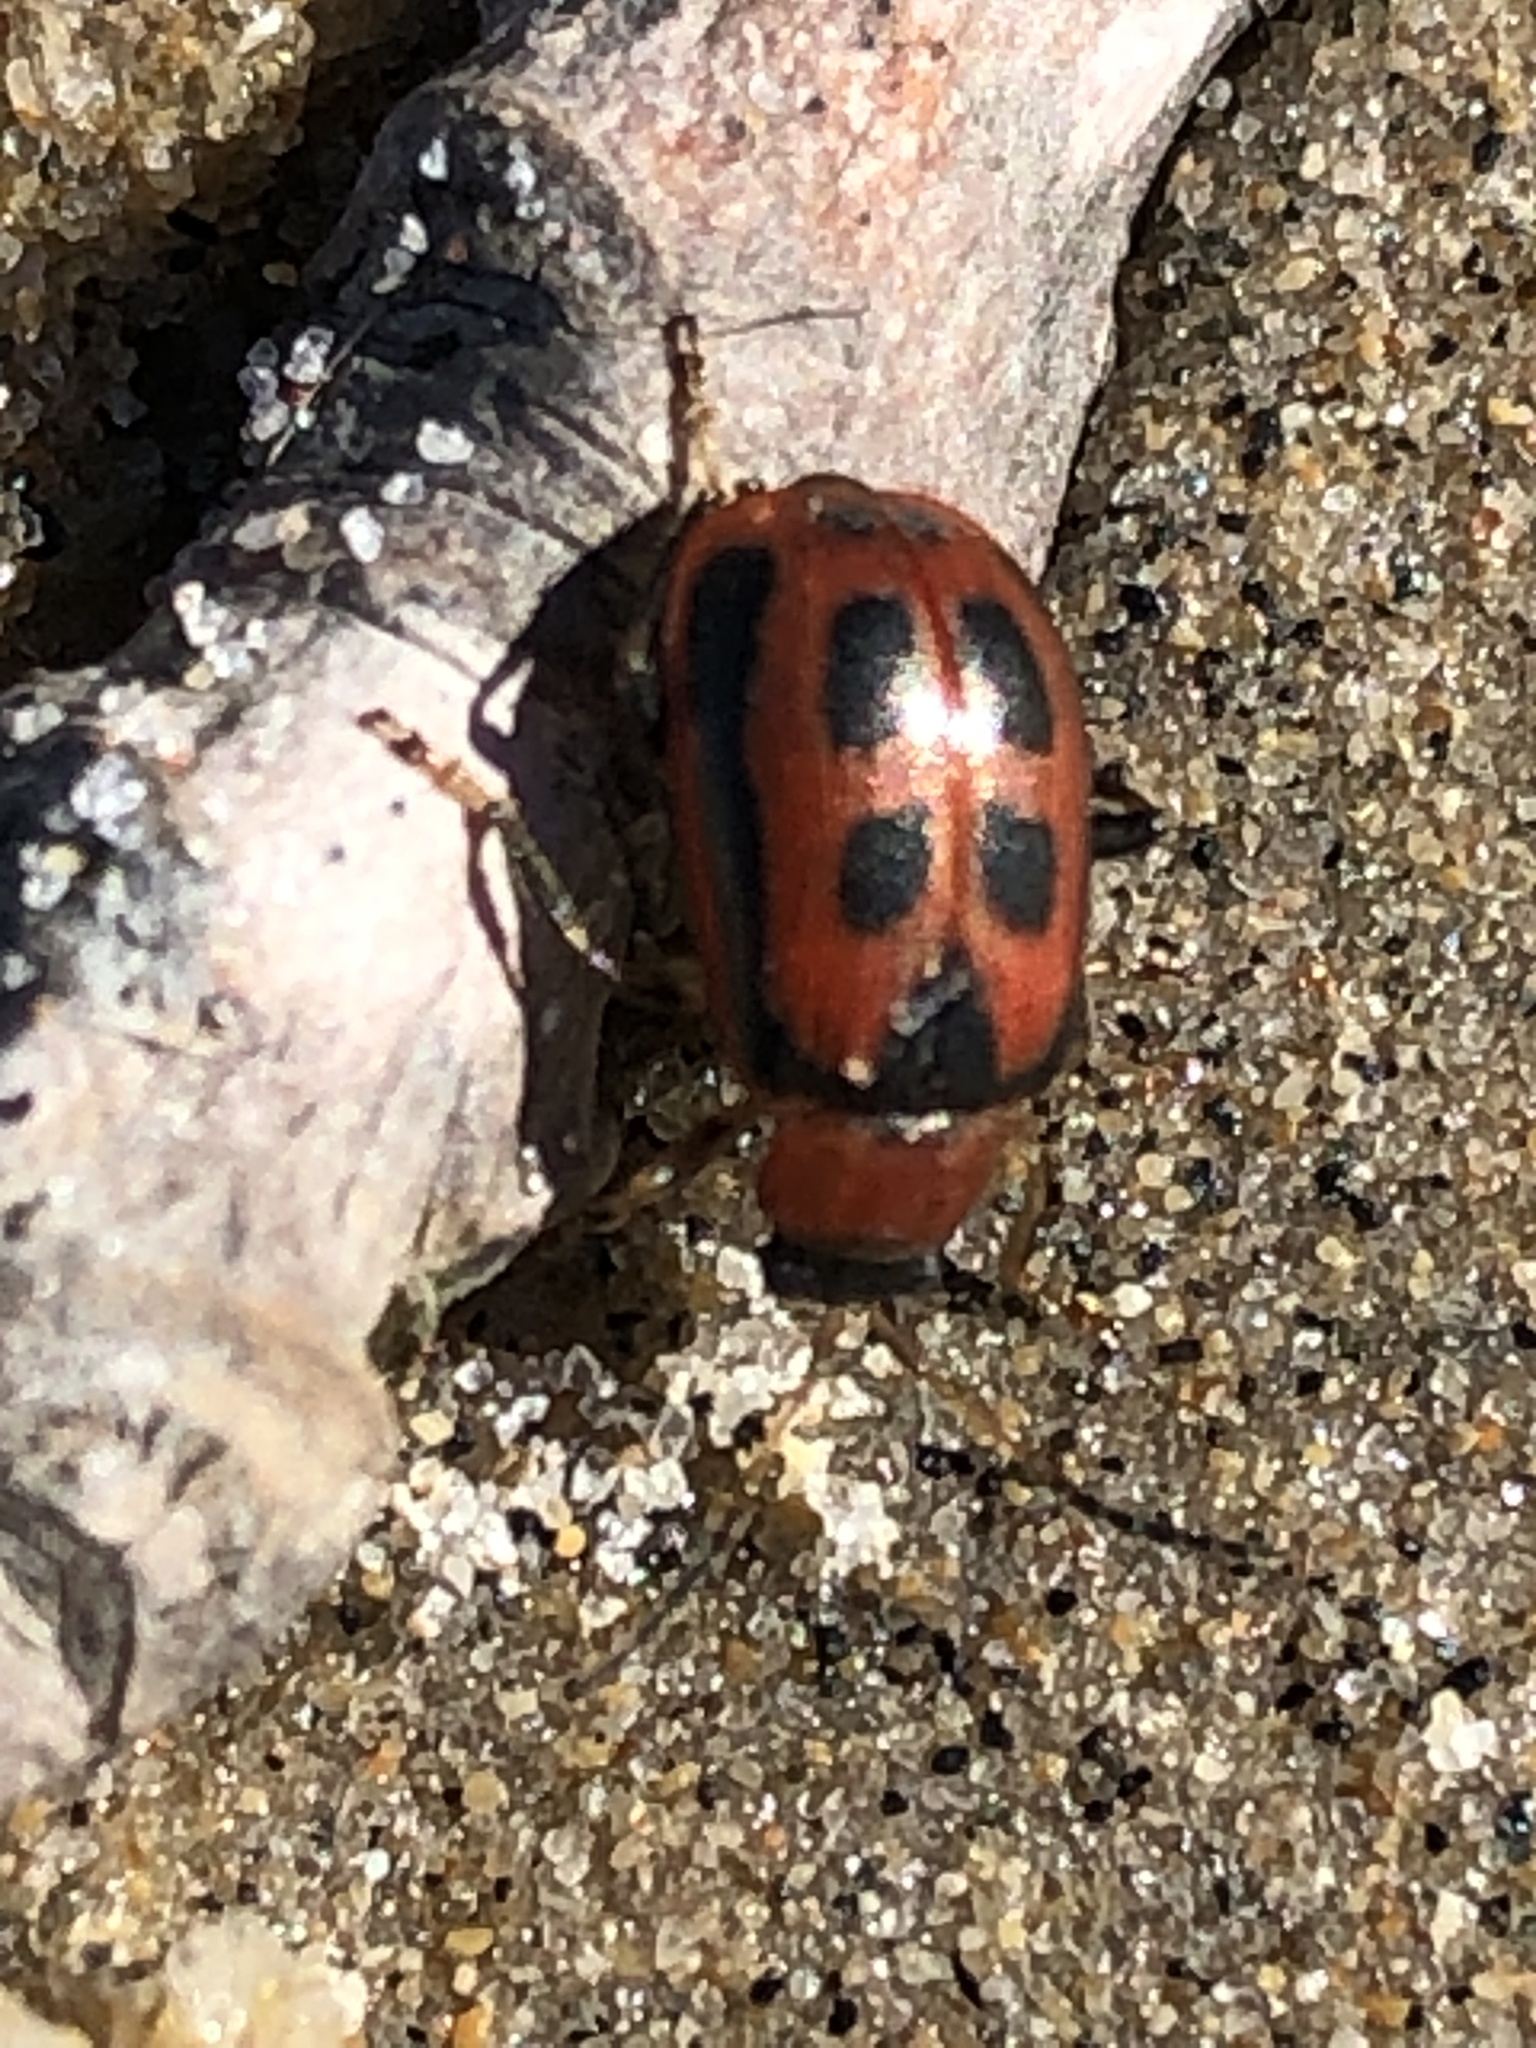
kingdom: Animalia
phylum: Arthropoda
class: Insecta
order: Coleoptera
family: Chrysomelidae
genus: Cerotoma
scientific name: Cerotoma trifurcata
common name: Bean leaf beetle
